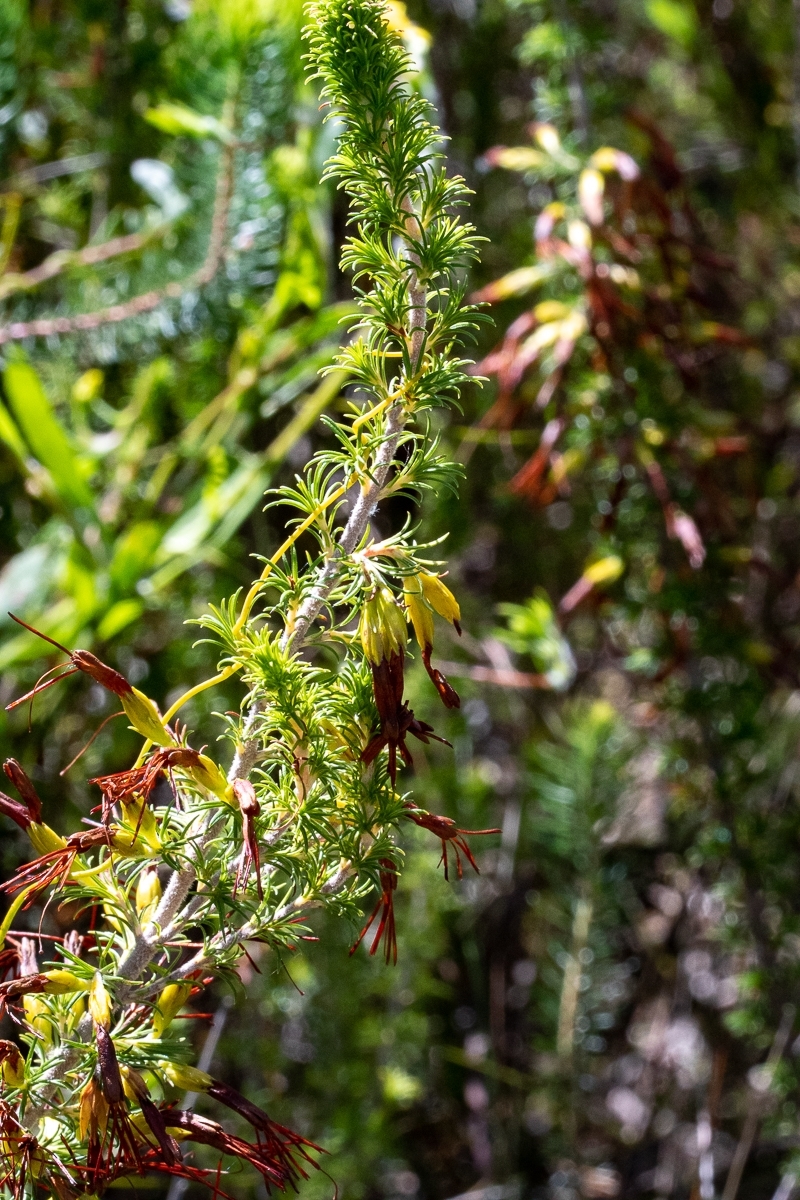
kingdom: Plantae
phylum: Tracheophyta
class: Magnoliopsida
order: Ericales
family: Ericaceae
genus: Erica
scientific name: Erica coccinea
